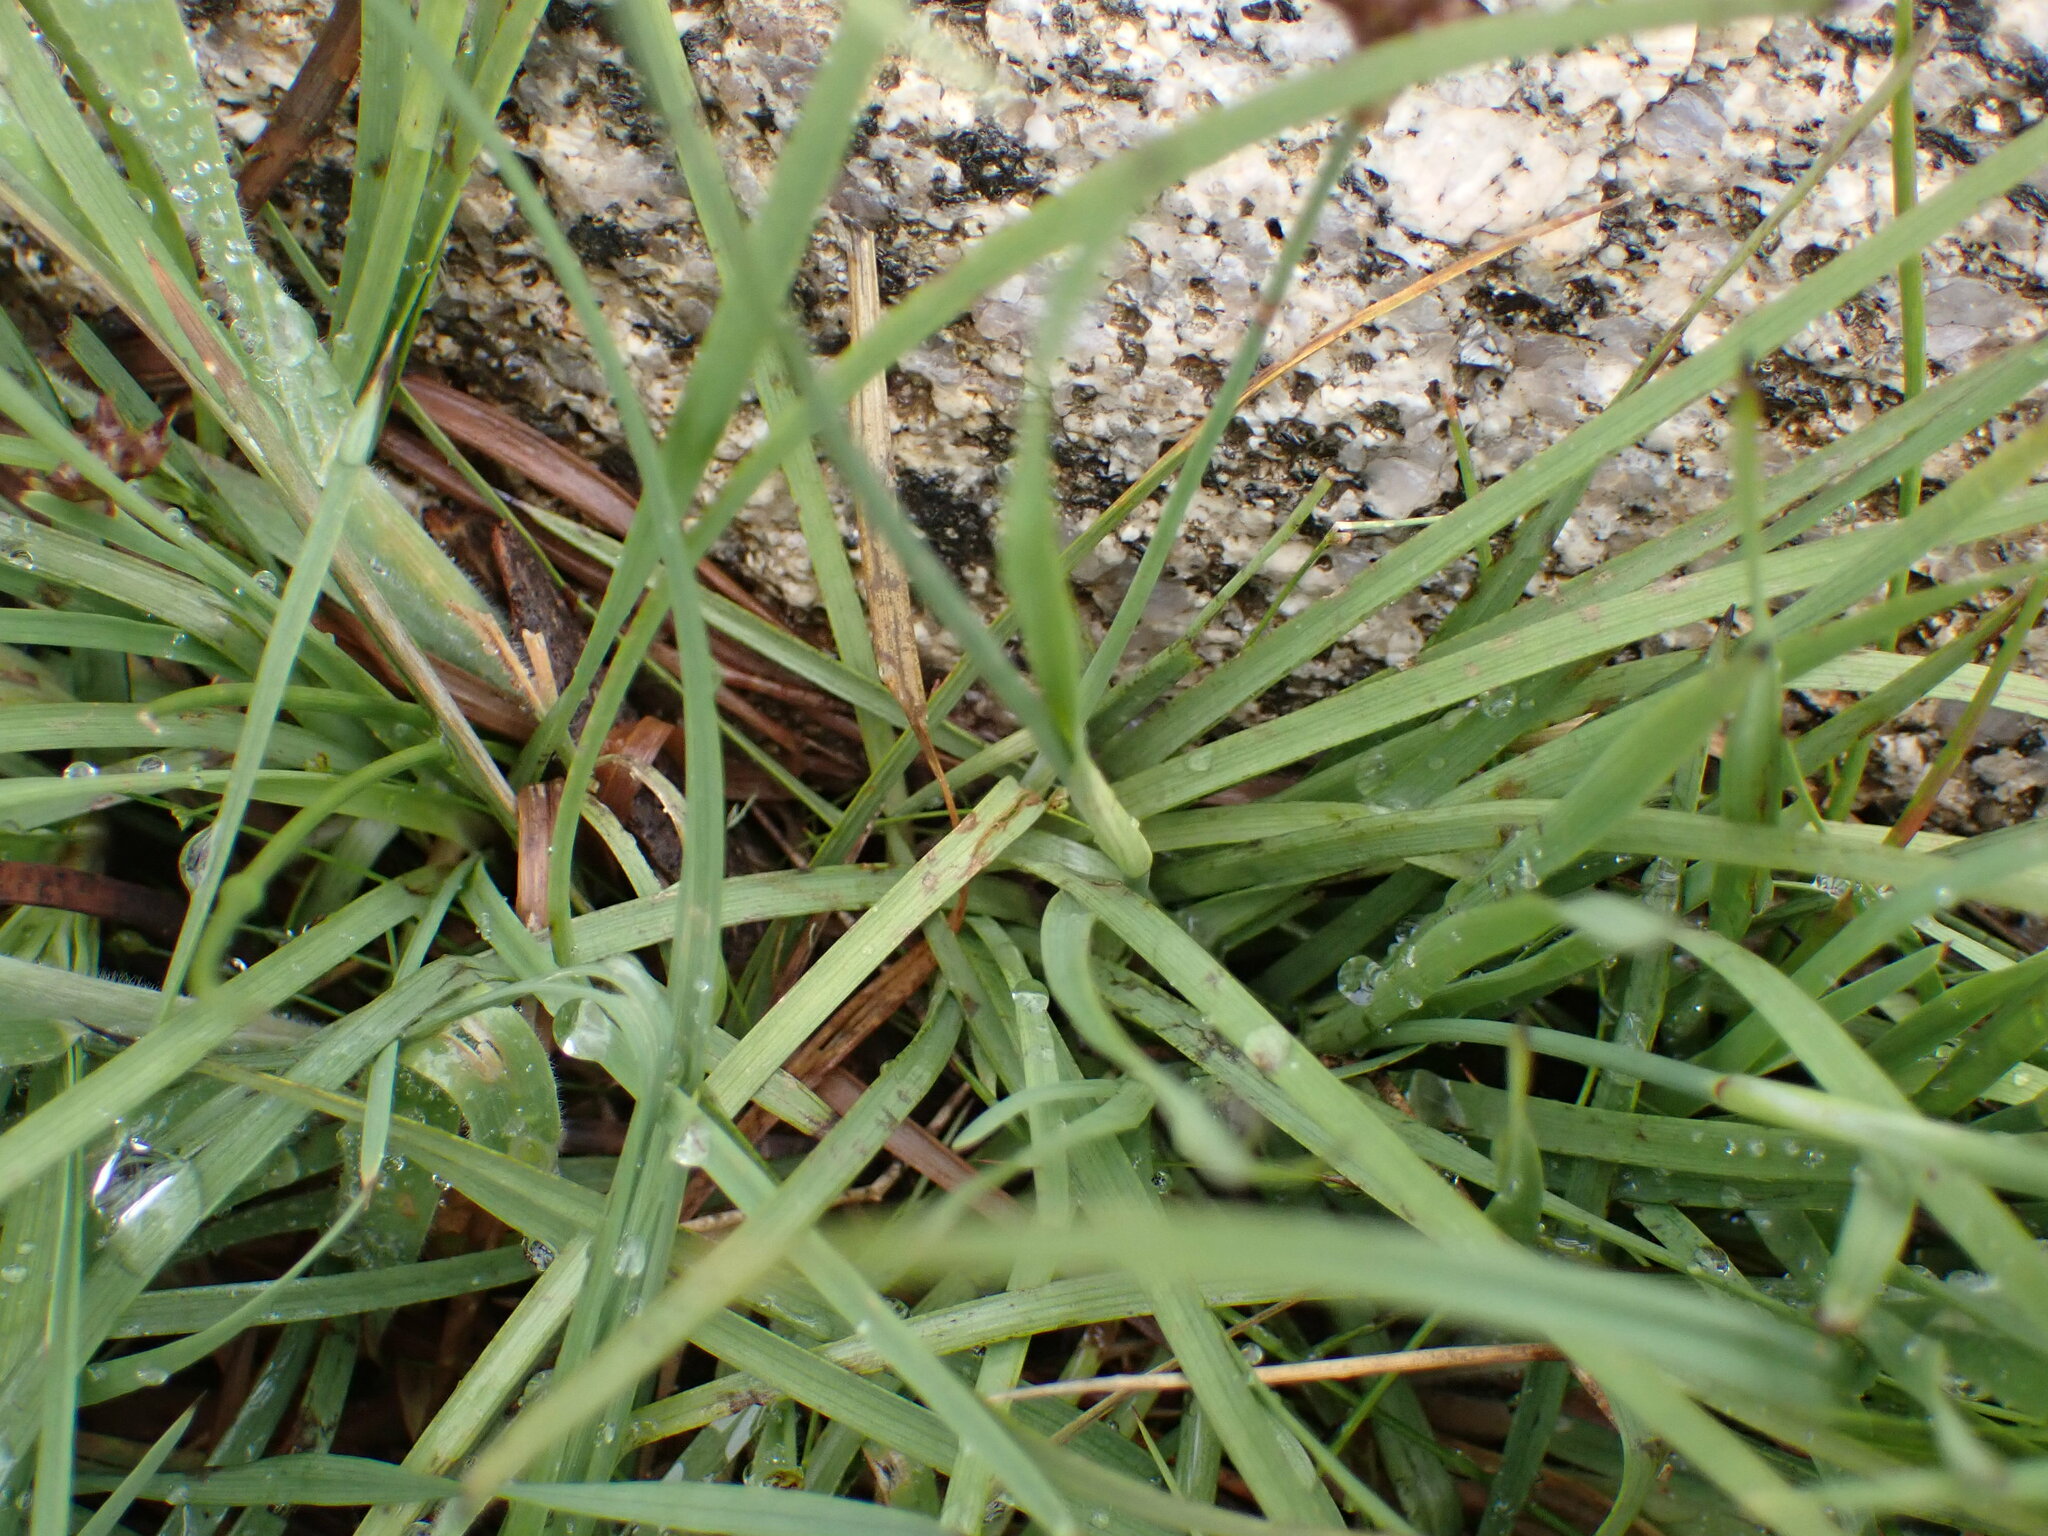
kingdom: Plantae
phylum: Tracheophyta
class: Liliopsida
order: Poales
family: Juncaceae
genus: Juncus
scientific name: Juncus falcatus
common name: Sickle-leaf rush
